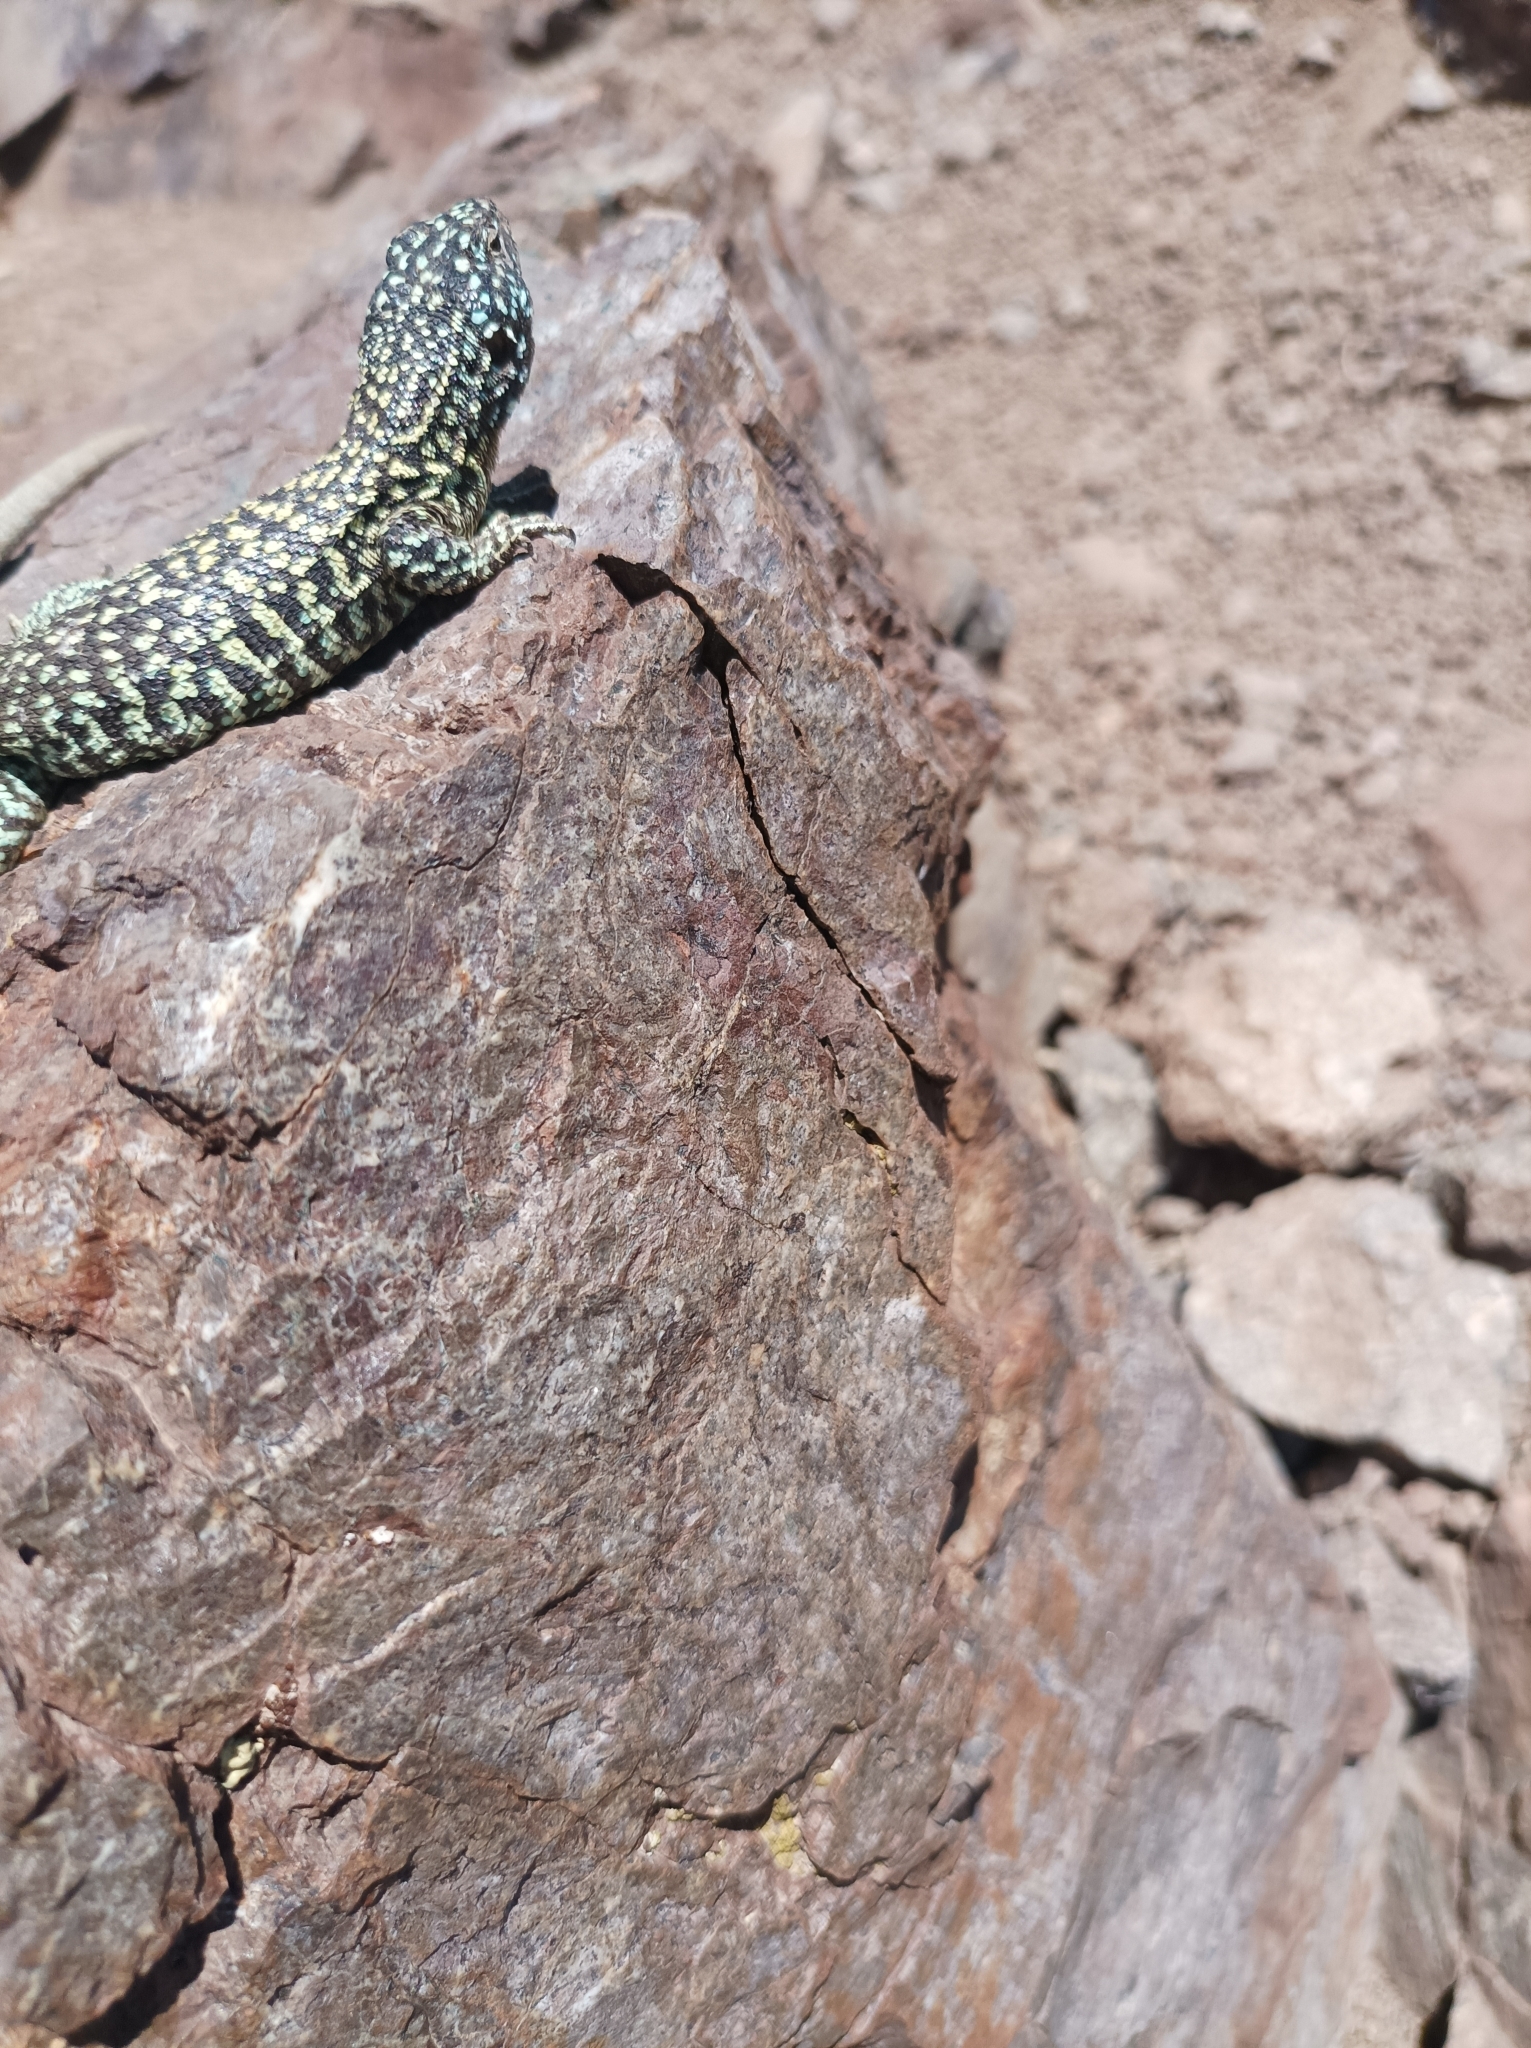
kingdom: Animalia
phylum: Chordata
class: Squamata
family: Liolaemidae
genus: Liolaemus
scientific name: Liolaemus nigroviridis
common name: Black-green tree iguana
